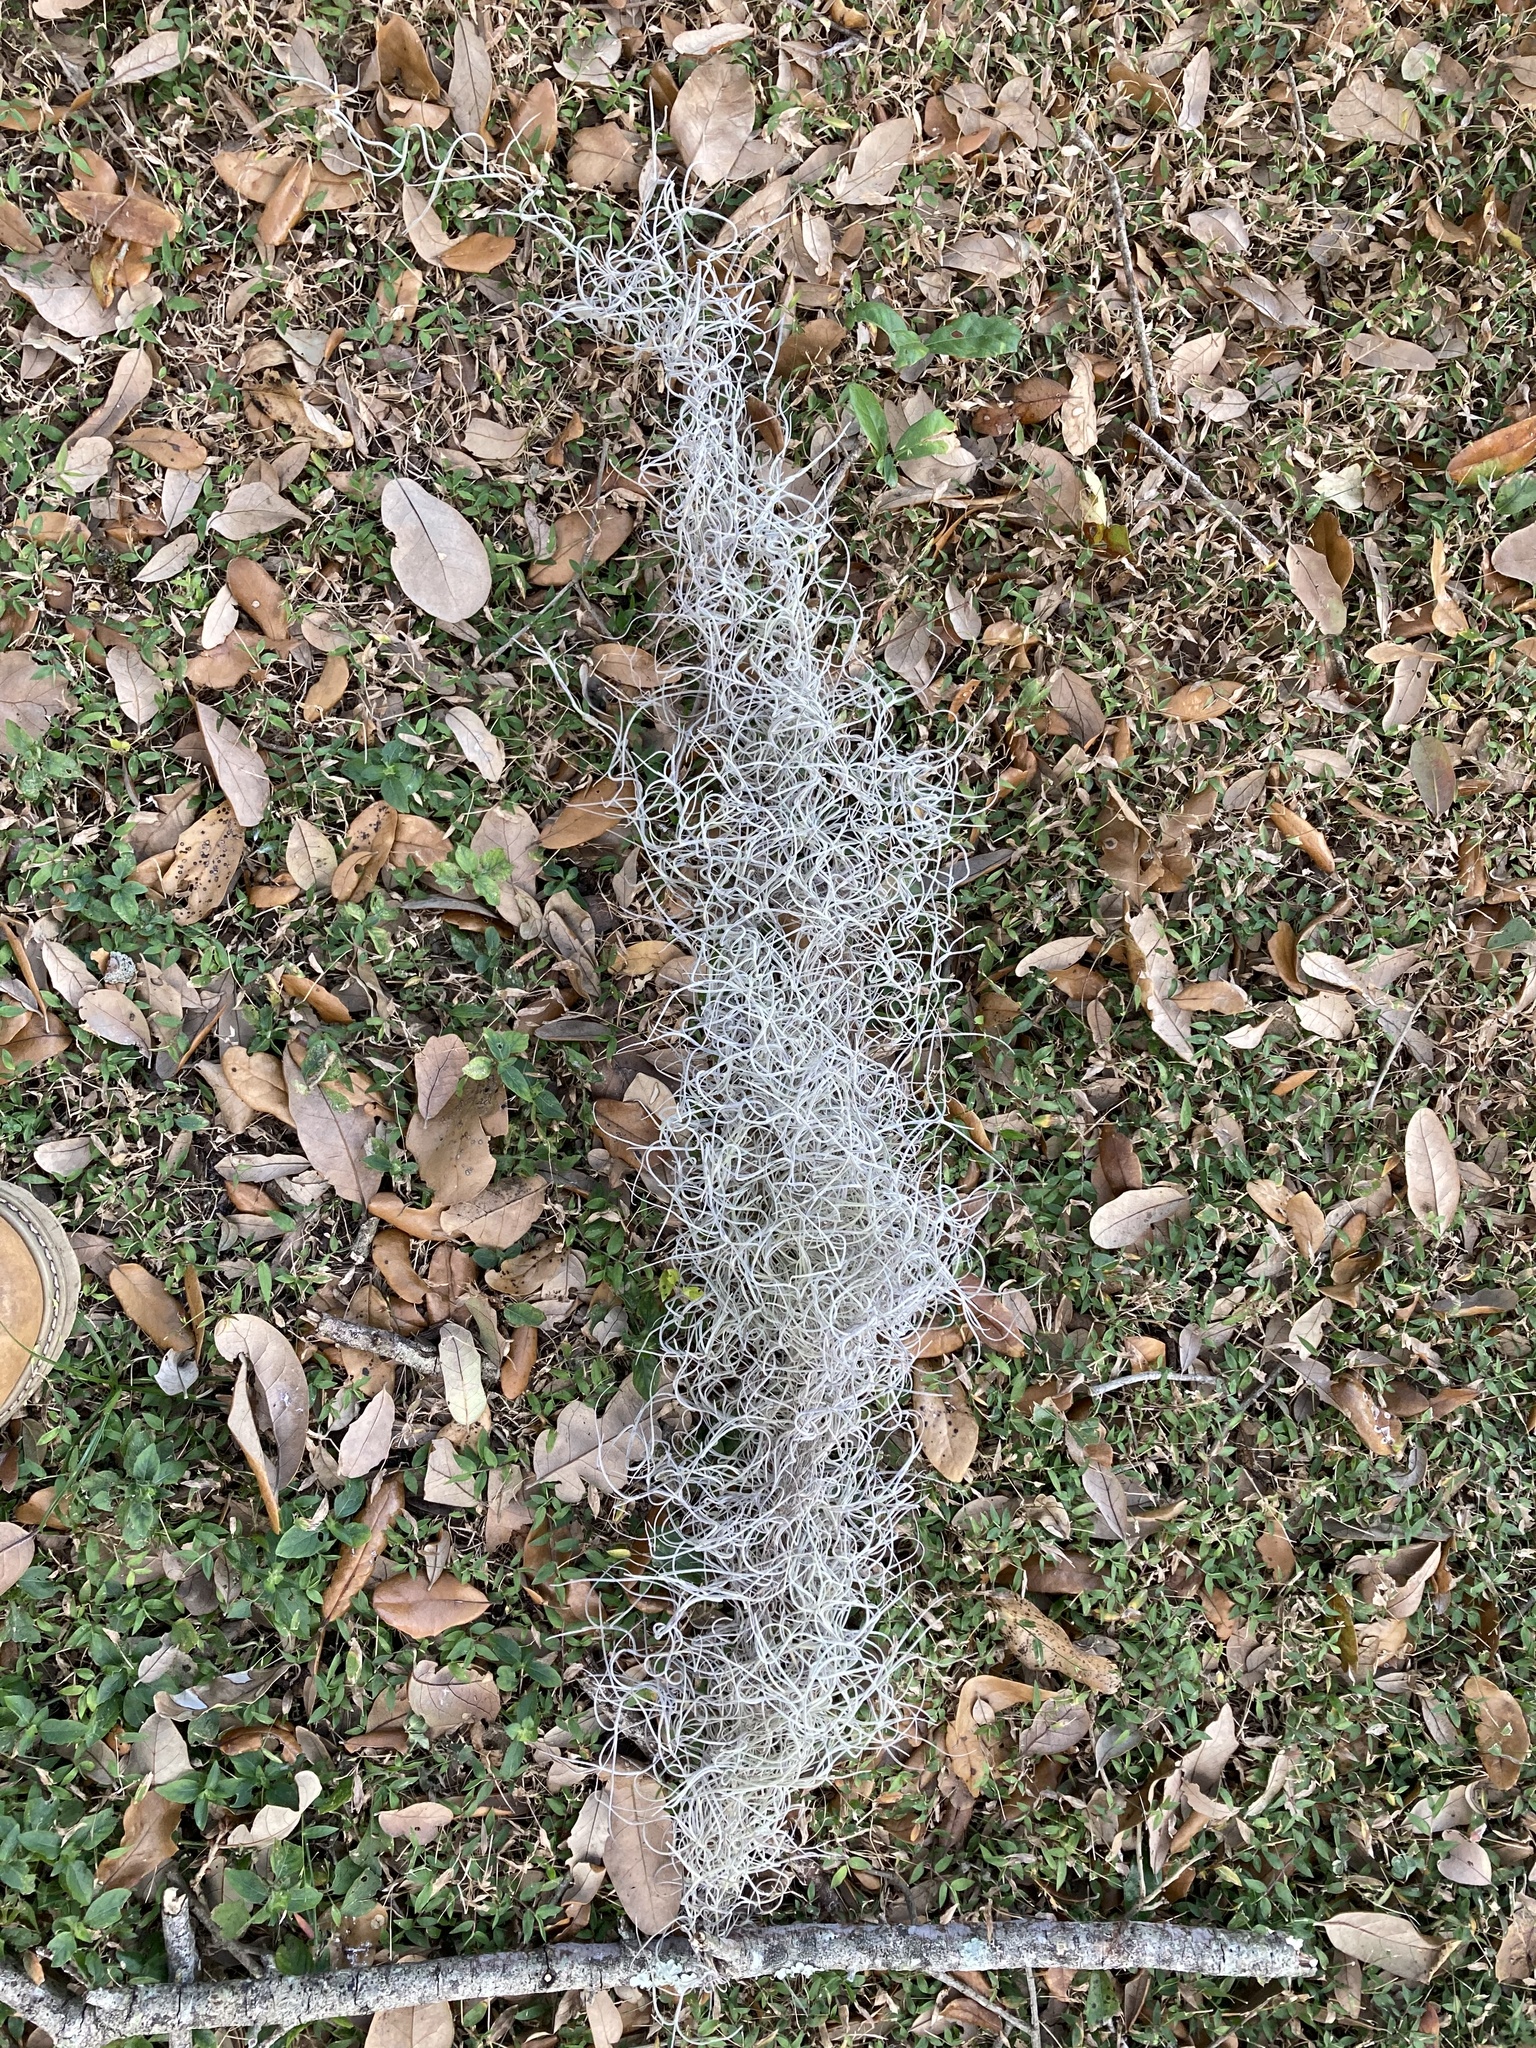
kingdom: Plantae
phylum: Tracheophyta
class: Liliopsida
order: Poales
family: Bromeliaceae
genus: Tillandsia
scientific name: Tillandsia usneoides
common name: Spanish moss
